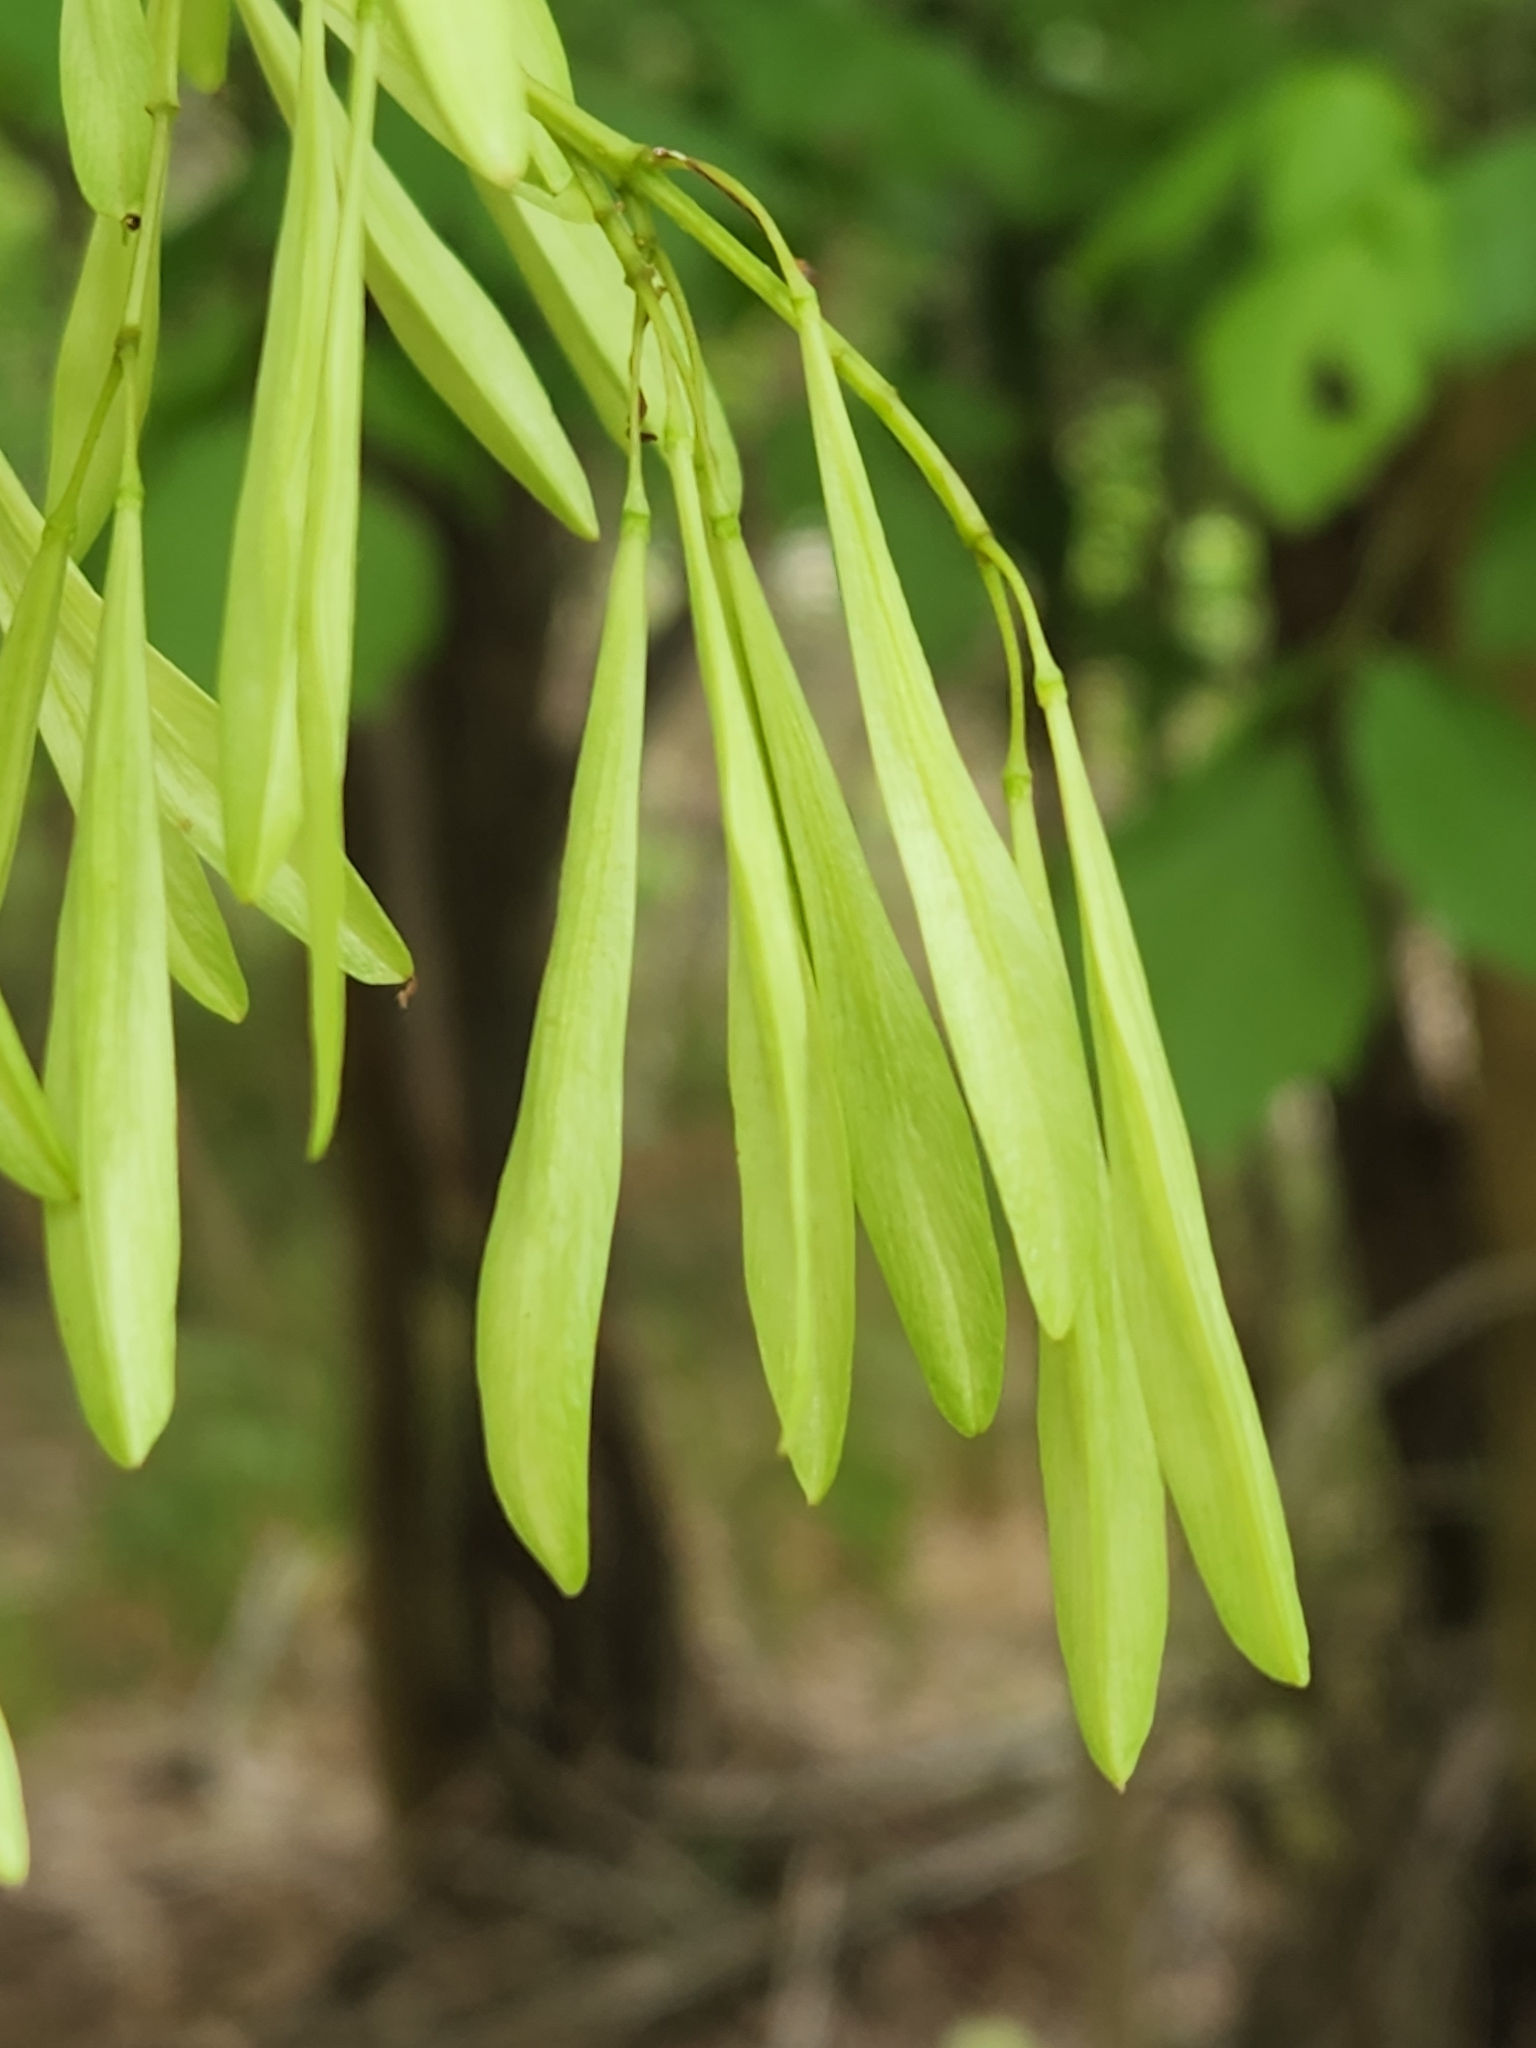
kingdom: Plantae
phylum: Tracheophyta
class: Magnoliopsida
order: Lamiales
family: Oleaceae
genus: Fraxinus
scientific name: Fraxinus berlandieriana
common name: Berlandier ash
